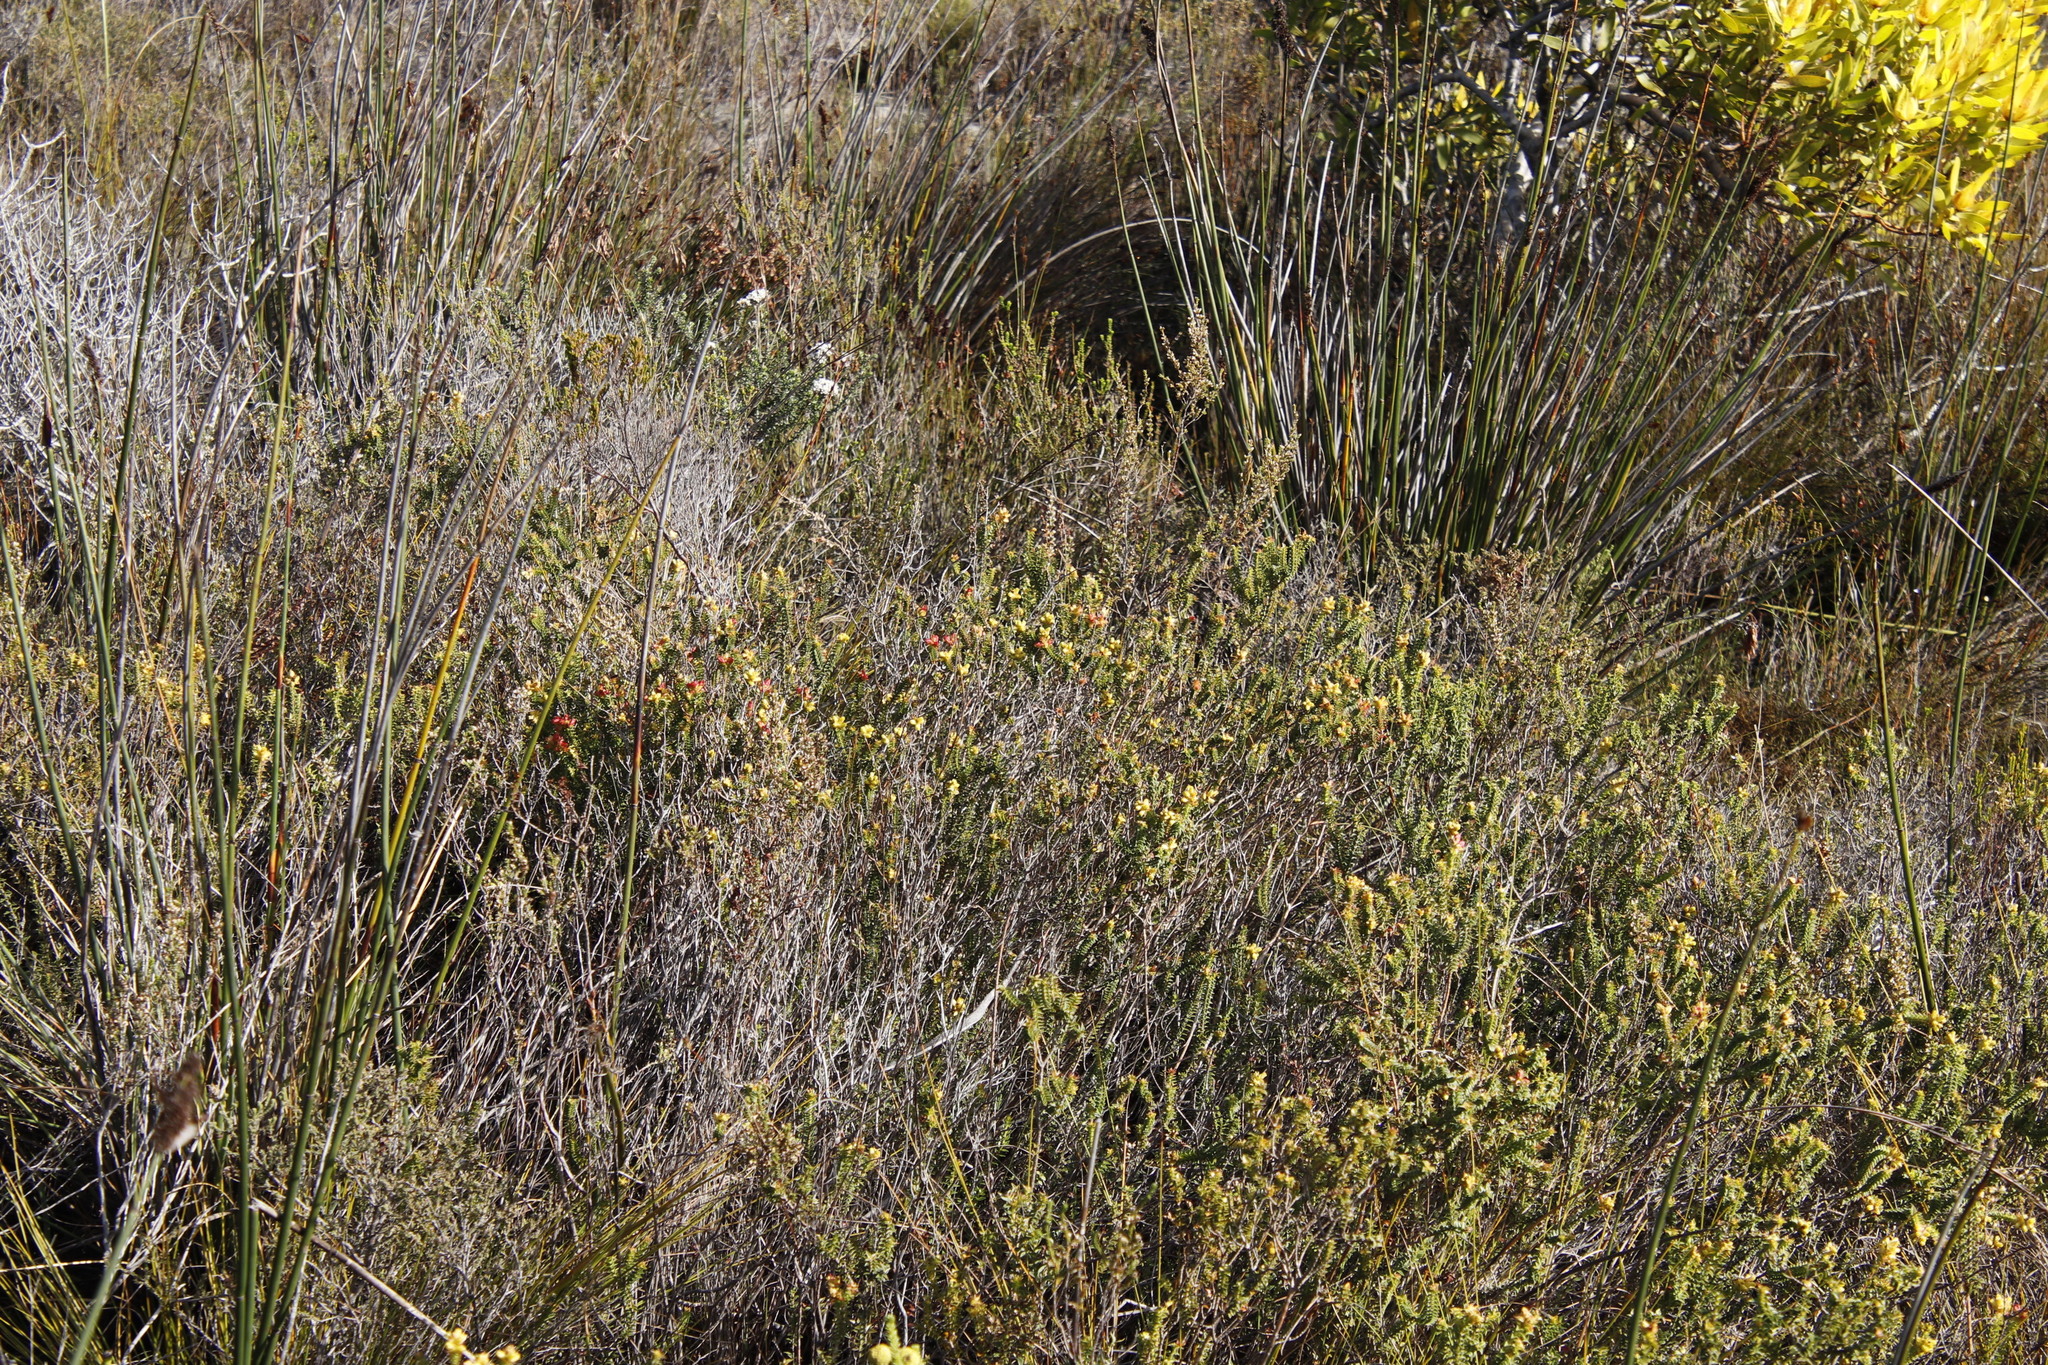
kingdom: Plantae
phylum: Tracheophyta
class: Magnoliopsida
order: Myrtales
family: Penaeaceae
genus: Penaea
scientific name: Penaea mucronata
